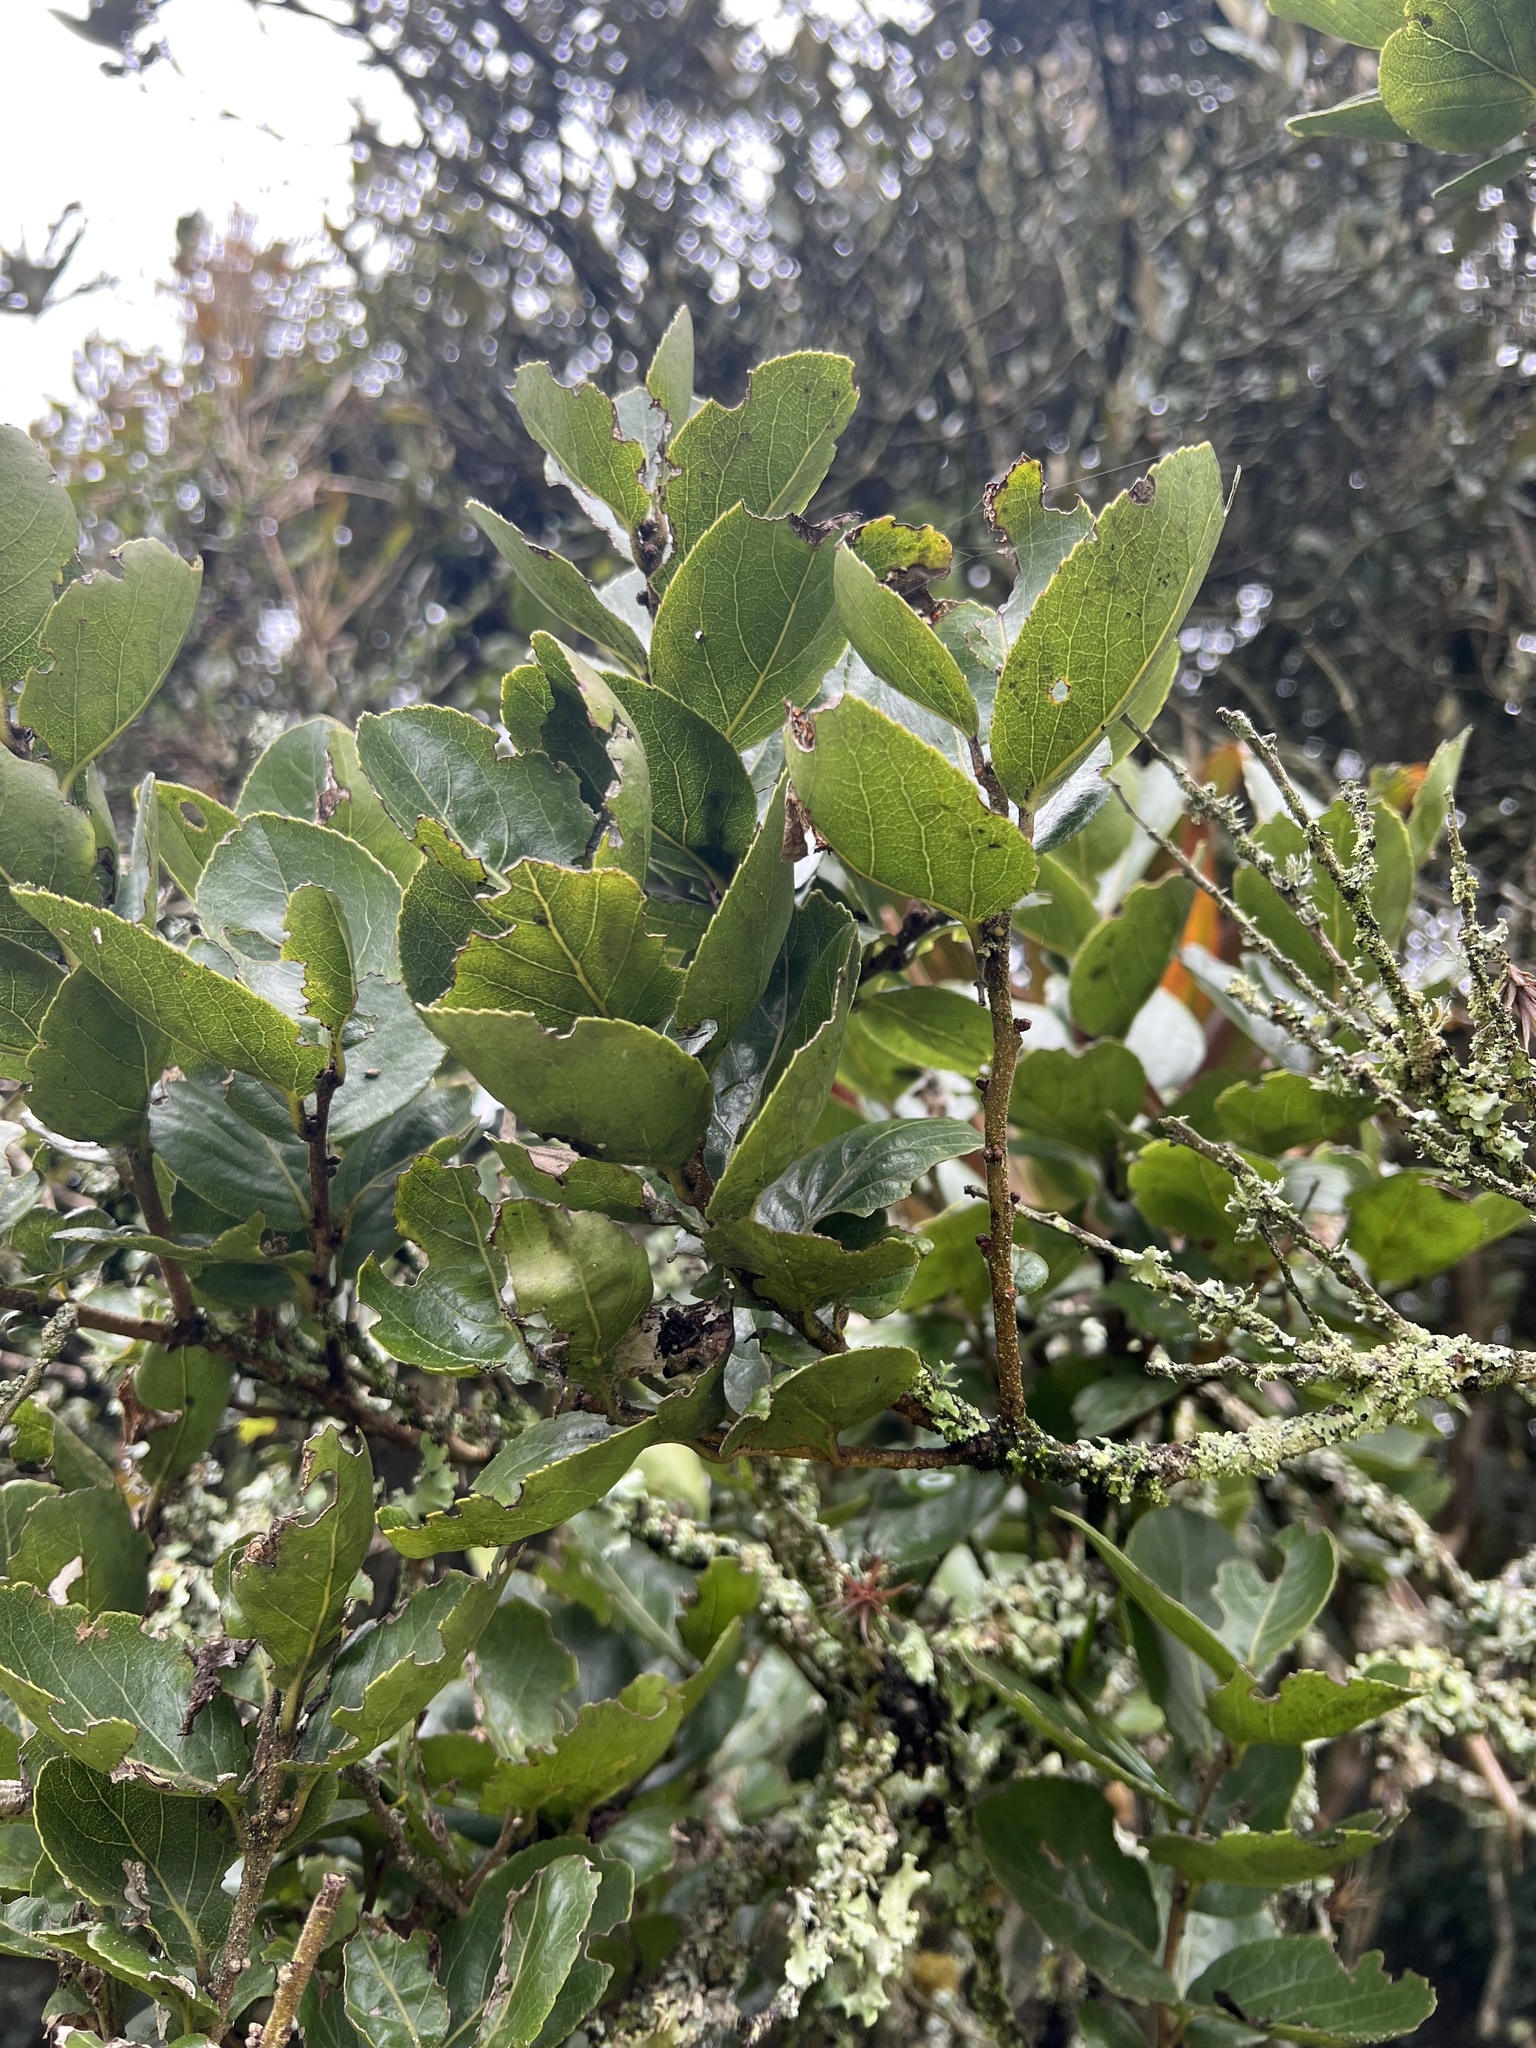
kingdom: Plantae
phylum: Tracheophyta
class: Magnoliopsida
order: Malpighiales
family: Salicaceae
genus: Xylosma
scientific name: Xylosma spiculifera
